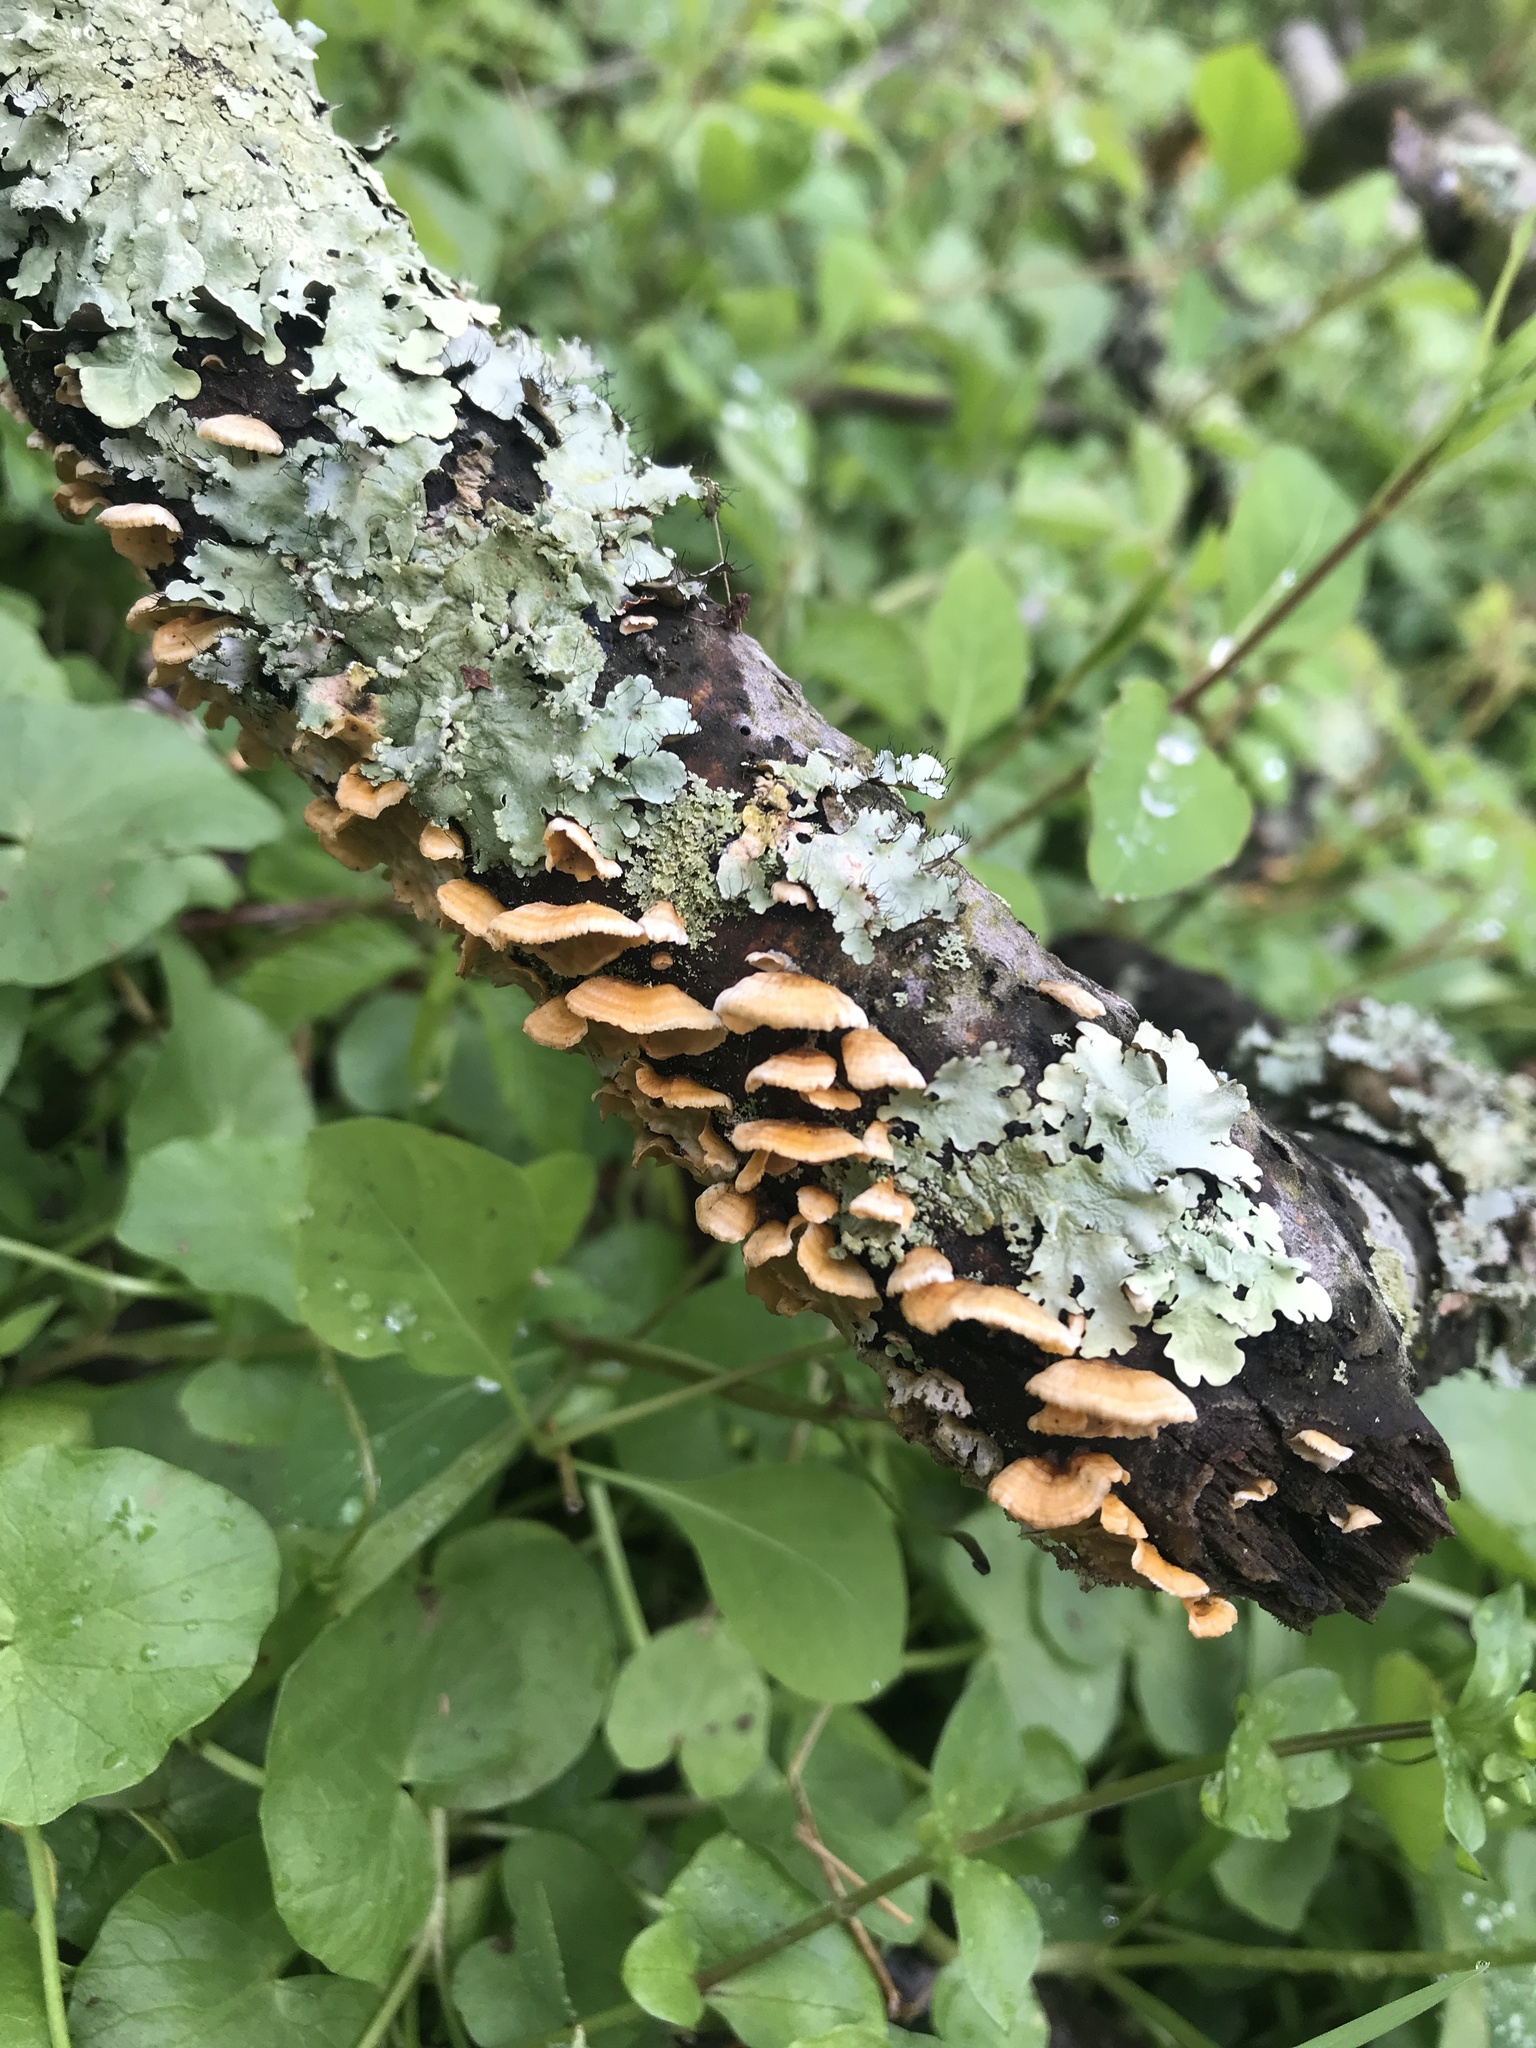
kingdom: Fungi
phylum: Basidiomycota
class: Agaricomycetes
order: Russulales
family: Stereaceae
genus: Stereum
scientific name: Stereum complicatum
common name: Crowded parchment
